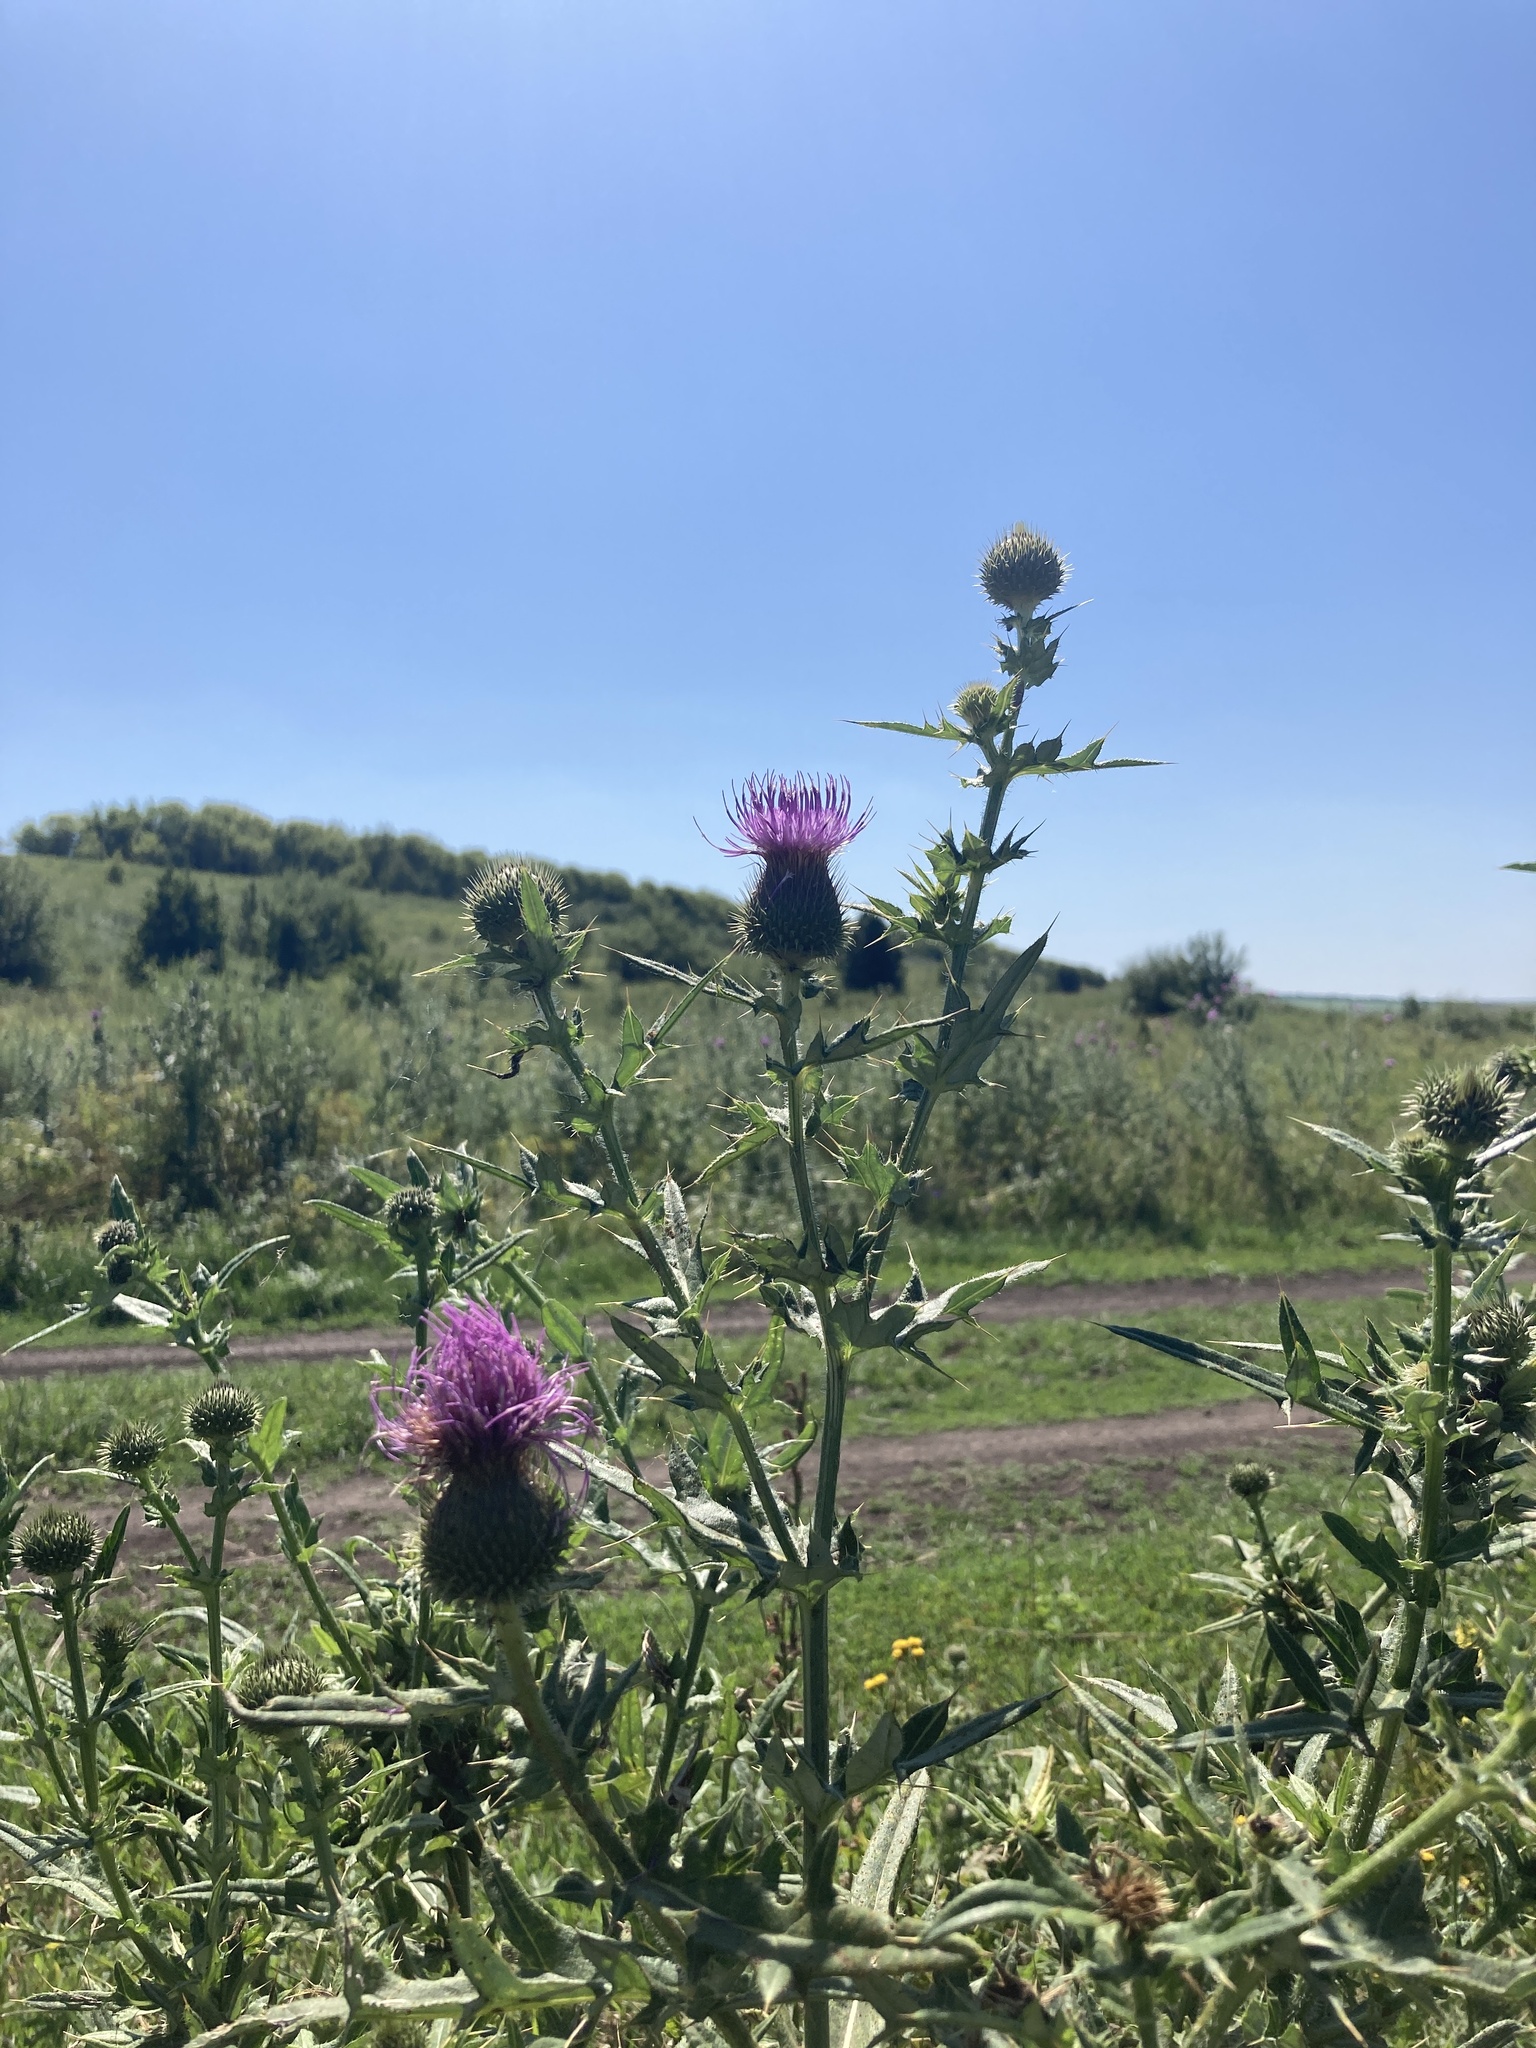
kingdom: Plantae
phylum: Tracheophyta
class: Magnoliopsida
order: Asterales
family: Asteraceae
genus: Cirsium
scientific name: Cirsium serrulatum
